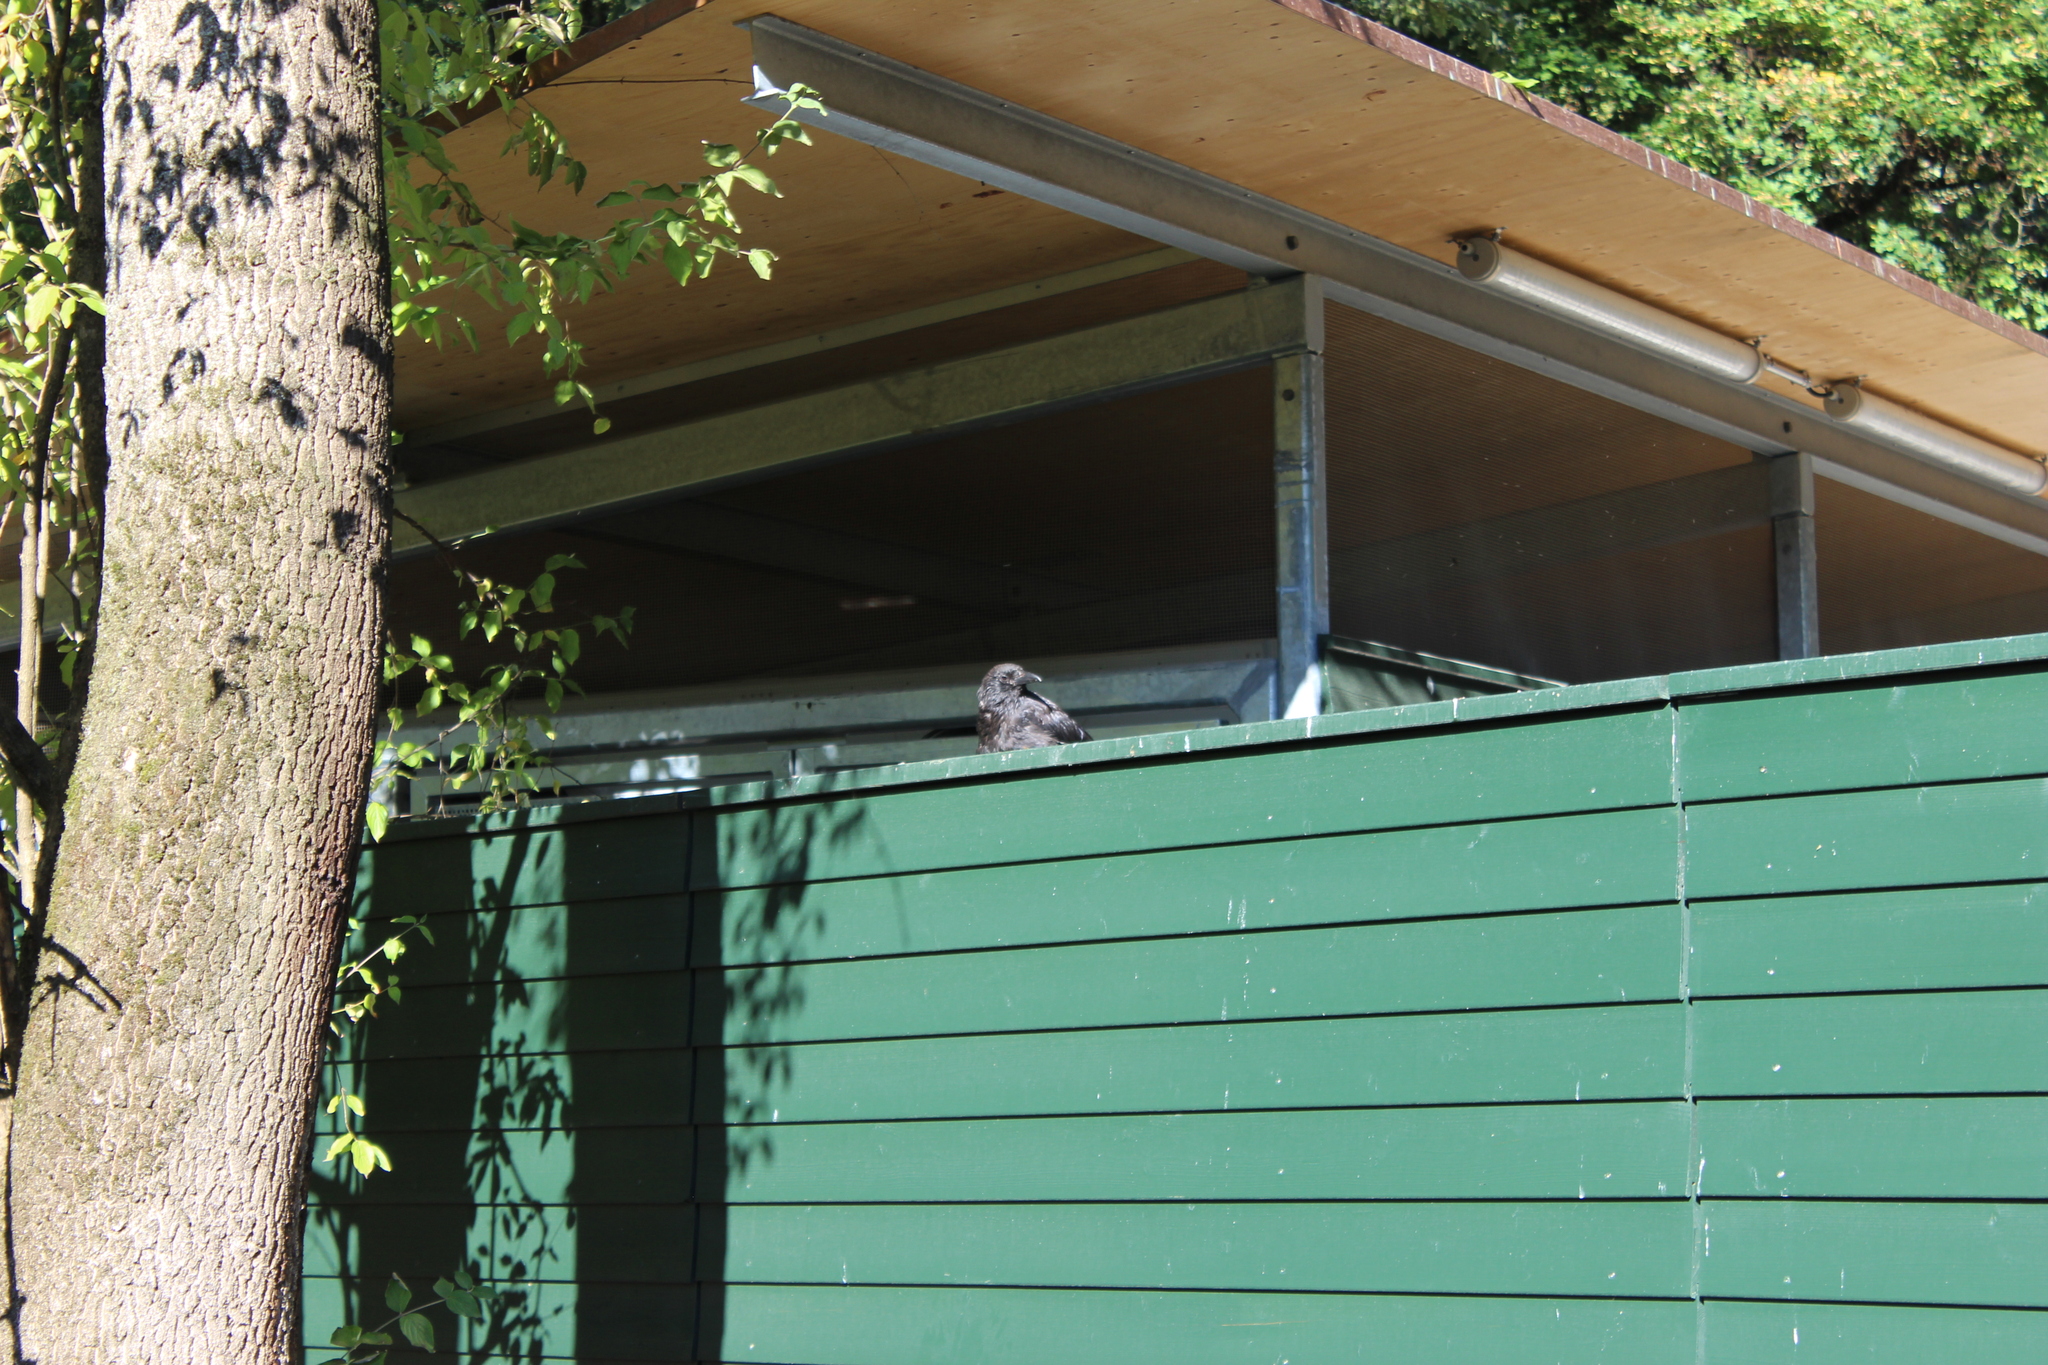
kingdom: Animalia
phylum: Chordata
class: Aves
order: Passeriformes
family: Corvidae
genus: Corvus
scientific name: Corvus corone
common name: Carrion crow
